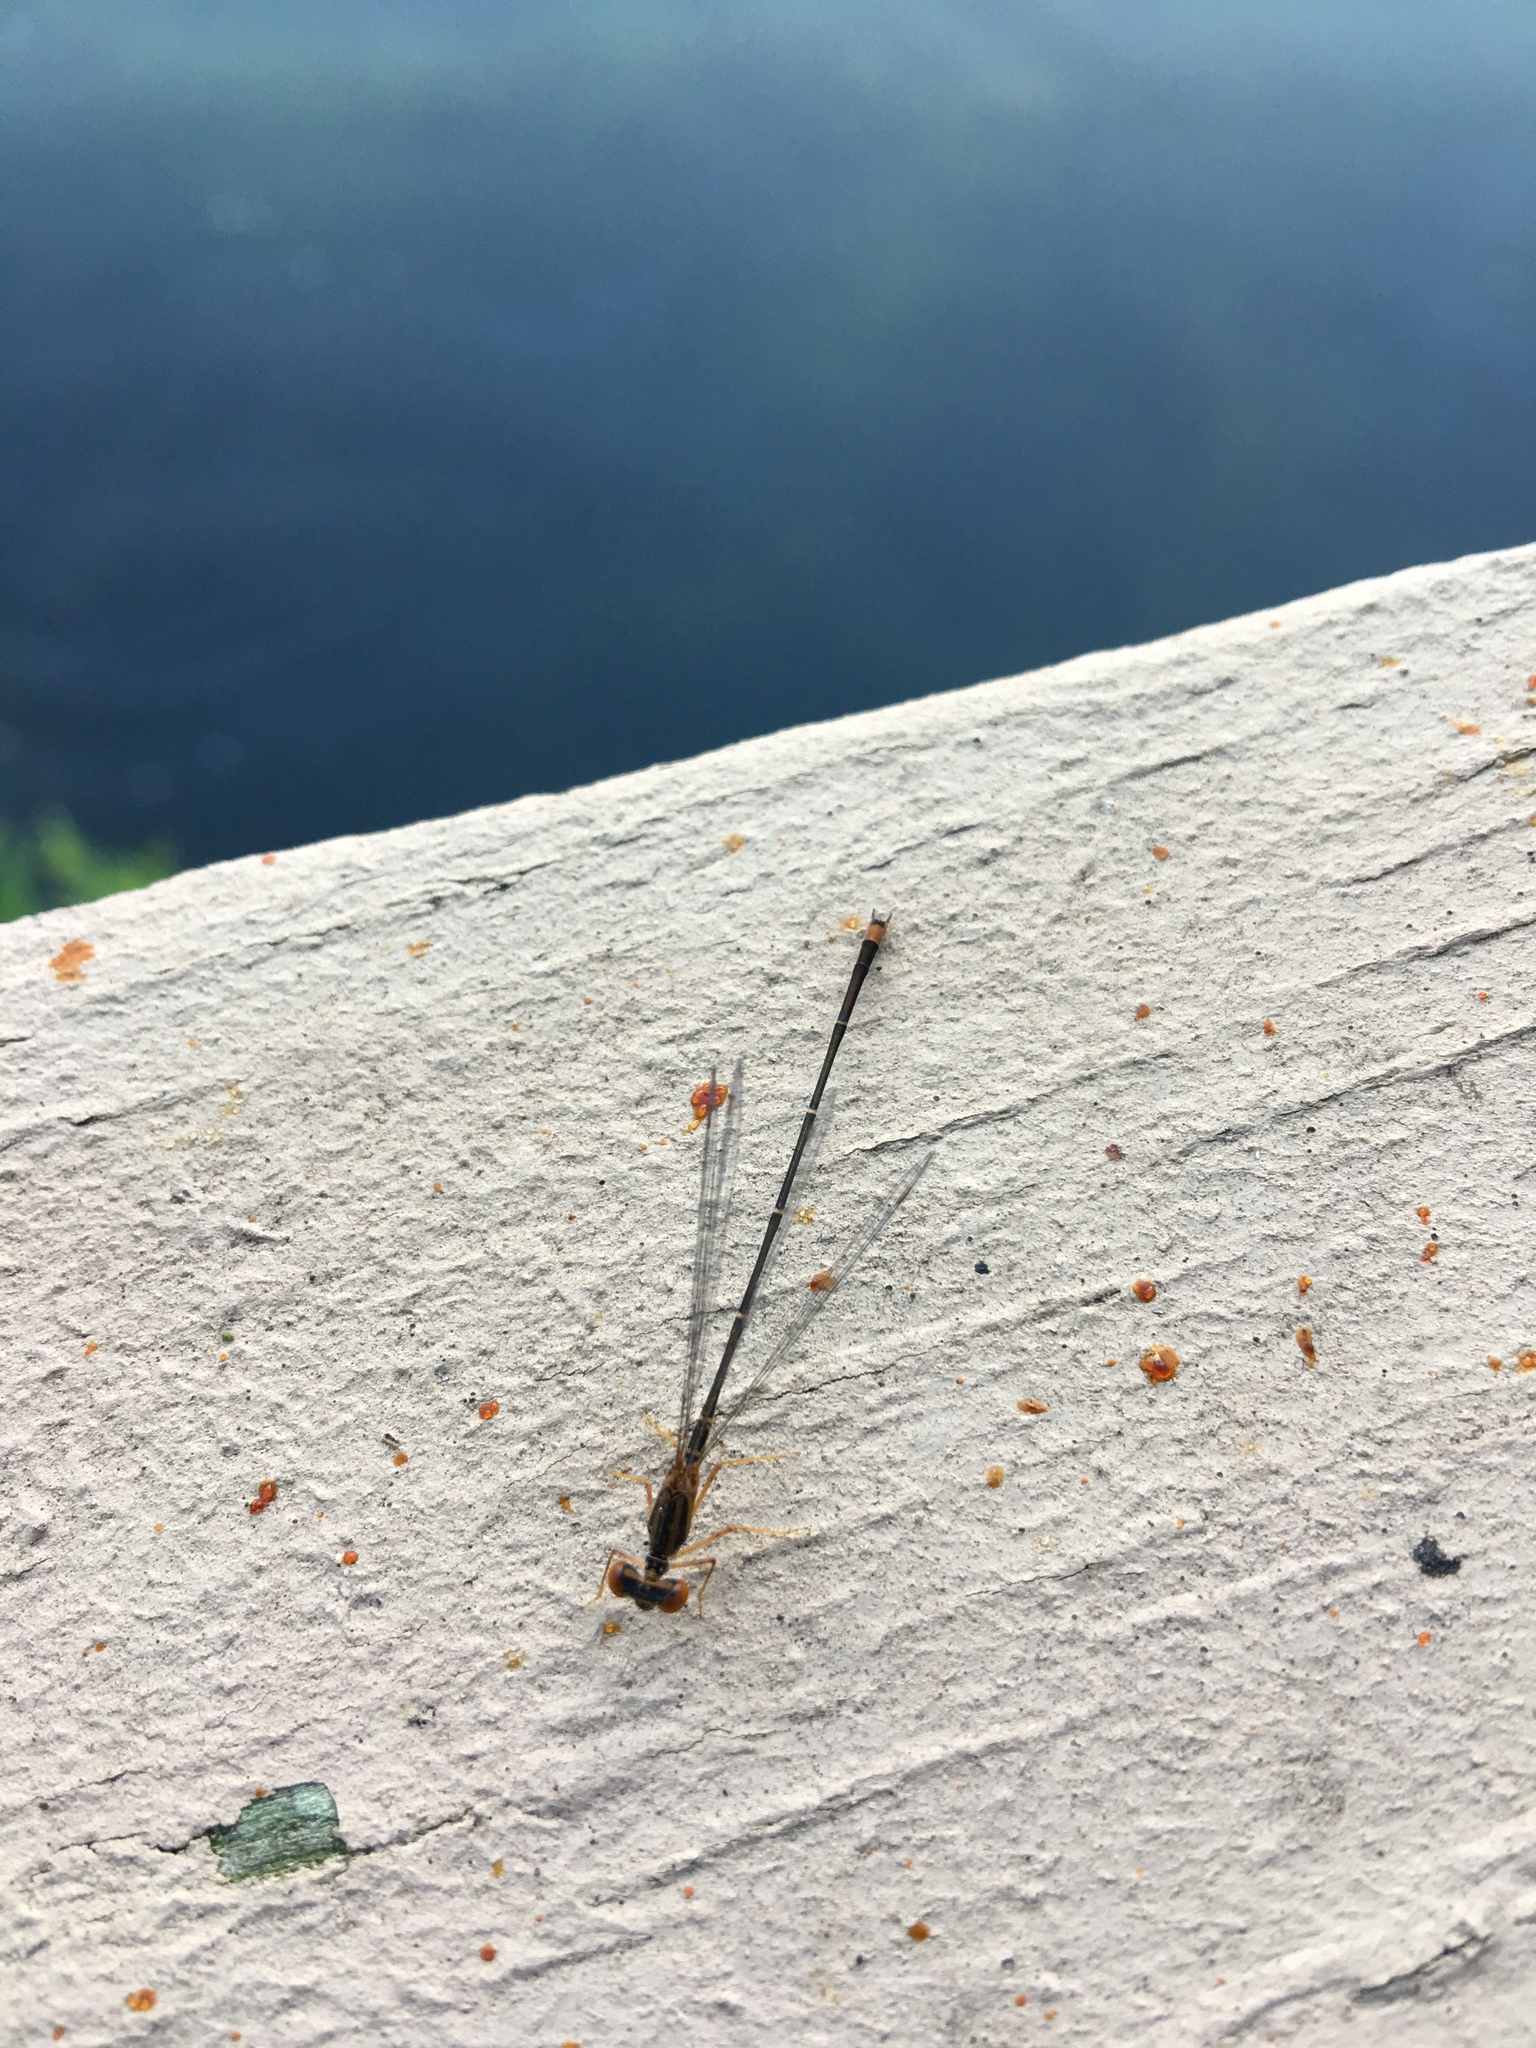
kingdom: Animalia
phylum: Arthropoda
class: Insecta
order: Odonata
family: Coenagrionidae
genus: Enallagma
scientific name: Enallagma signatum
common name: Orange bluet
